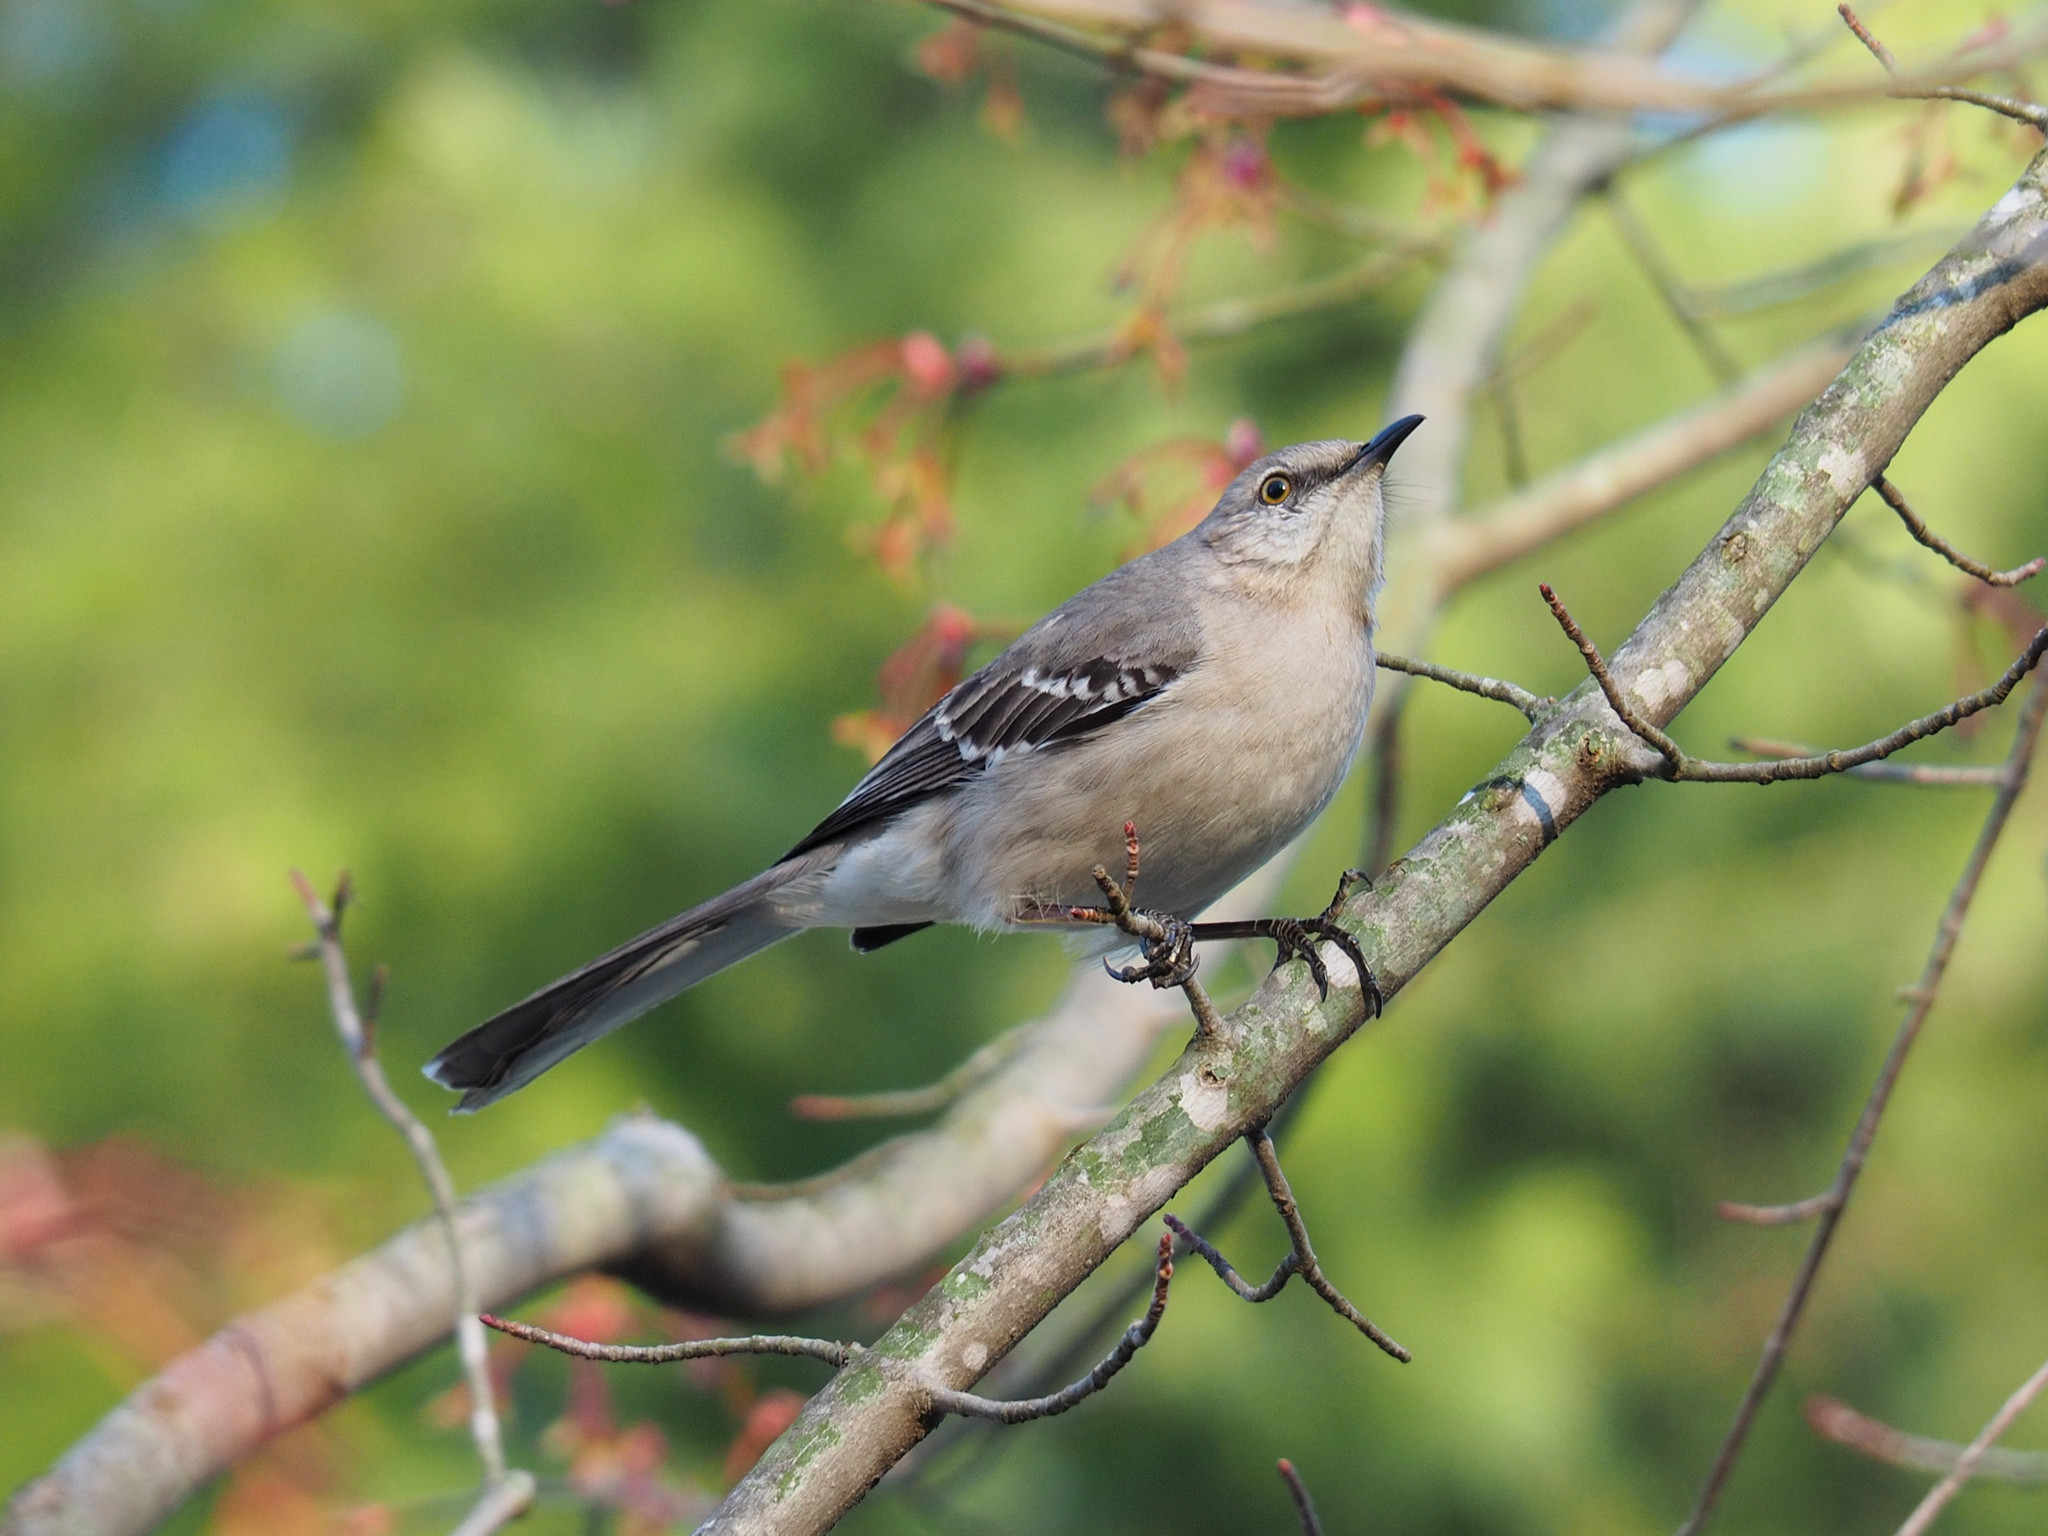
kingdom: Animalia
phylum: Chordata
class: Aves
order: Passeriformes
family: Mimidae
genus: Mimus
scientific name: Mimus polyglottos
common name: Northern mockingbird
